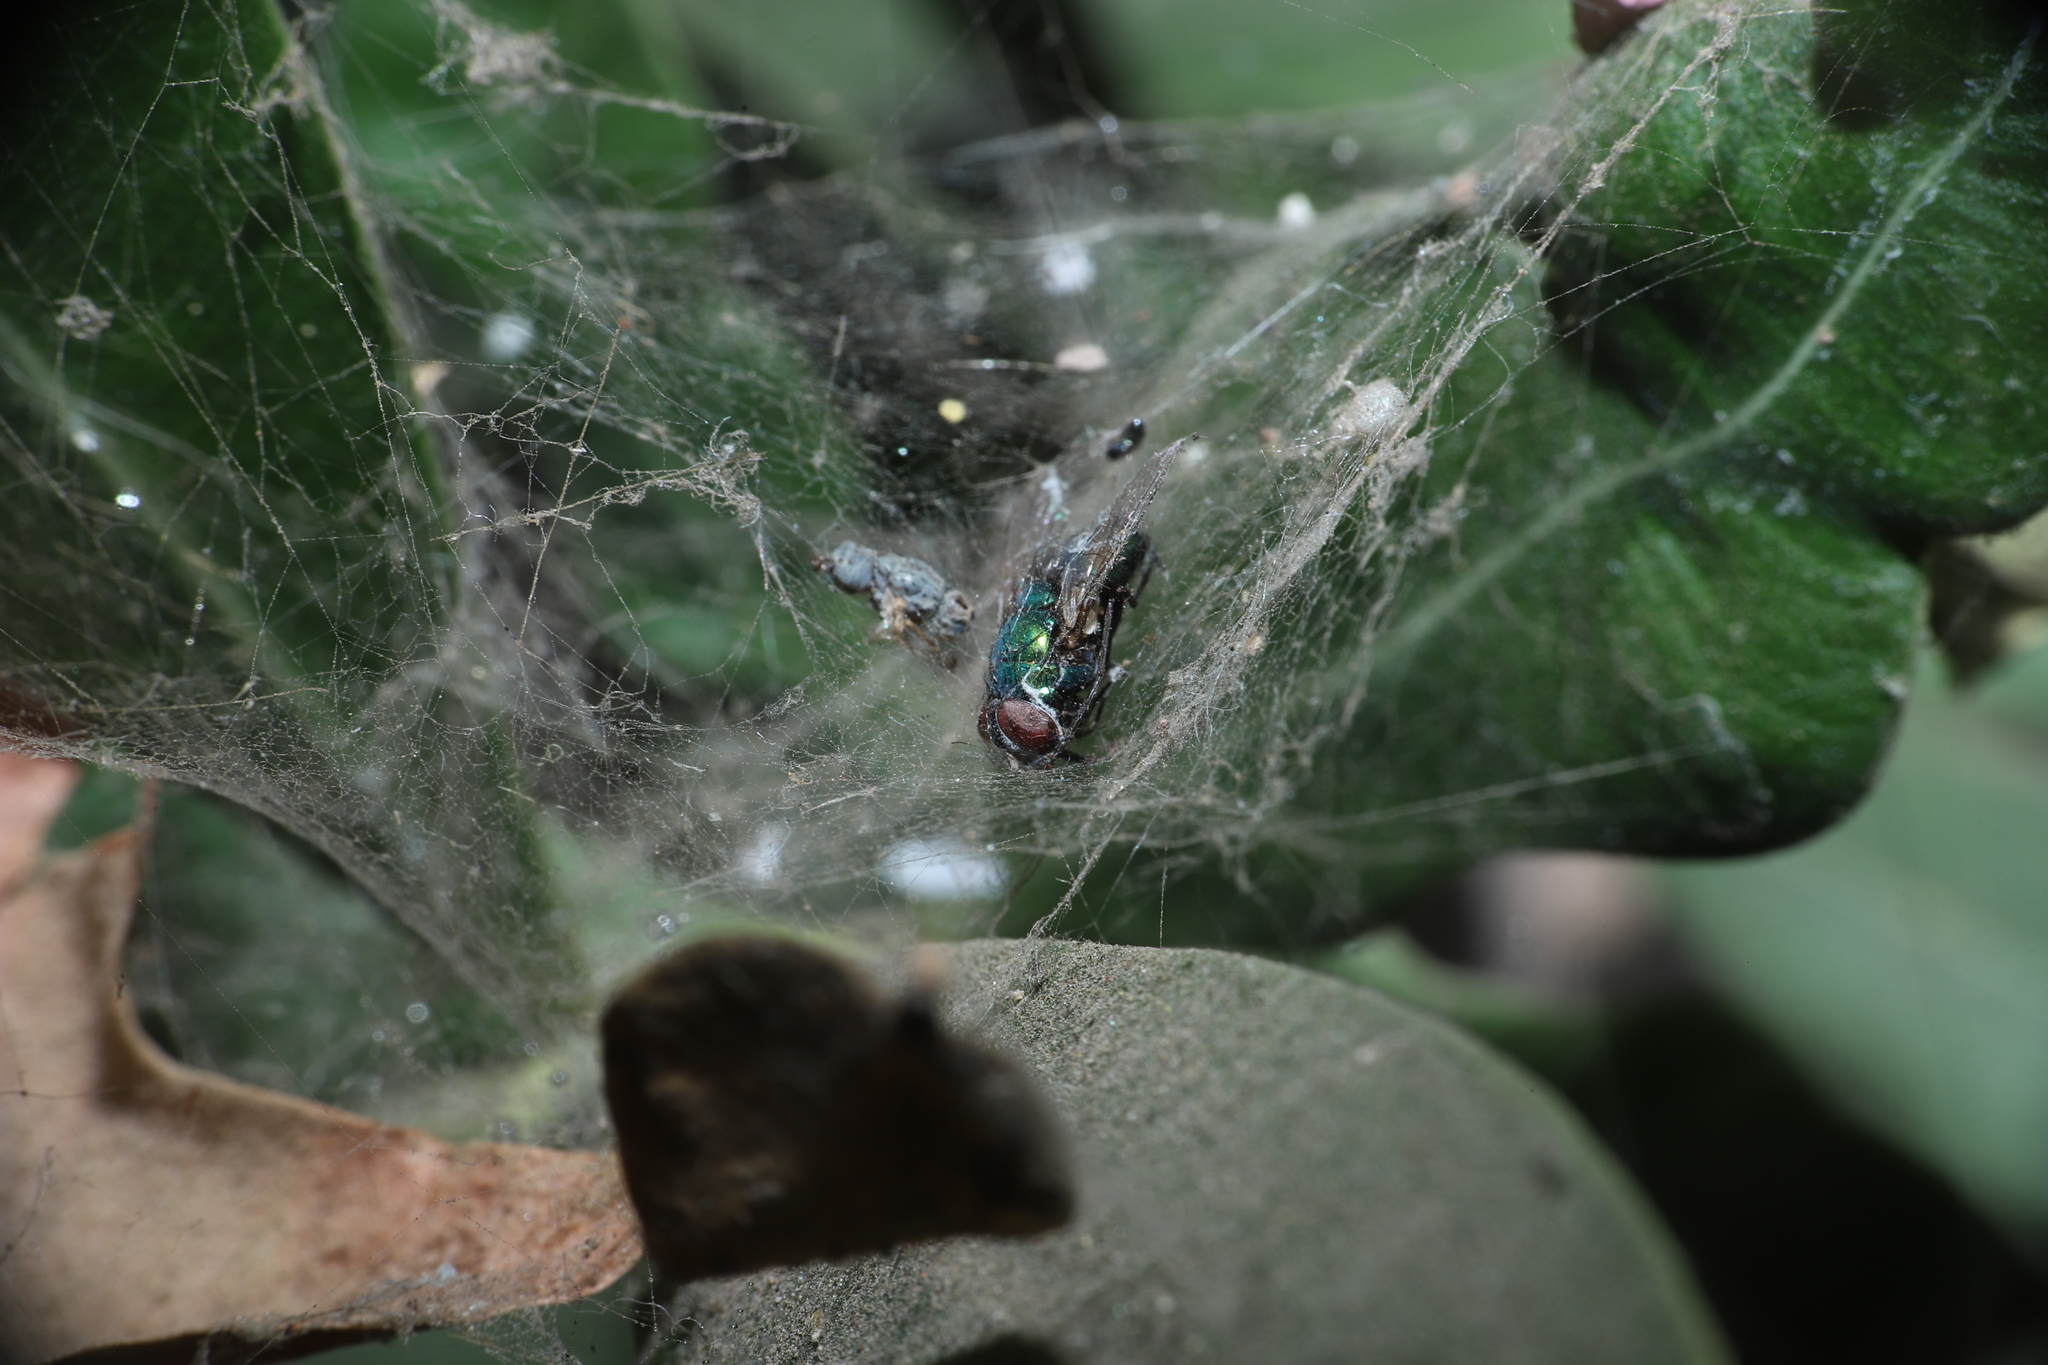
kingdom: Animalia
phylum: Arthropoda
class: Insecta
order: Diptera
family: Calliphoridae
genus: Lucilia
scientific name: Lucilia sericata
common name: Blow fly
